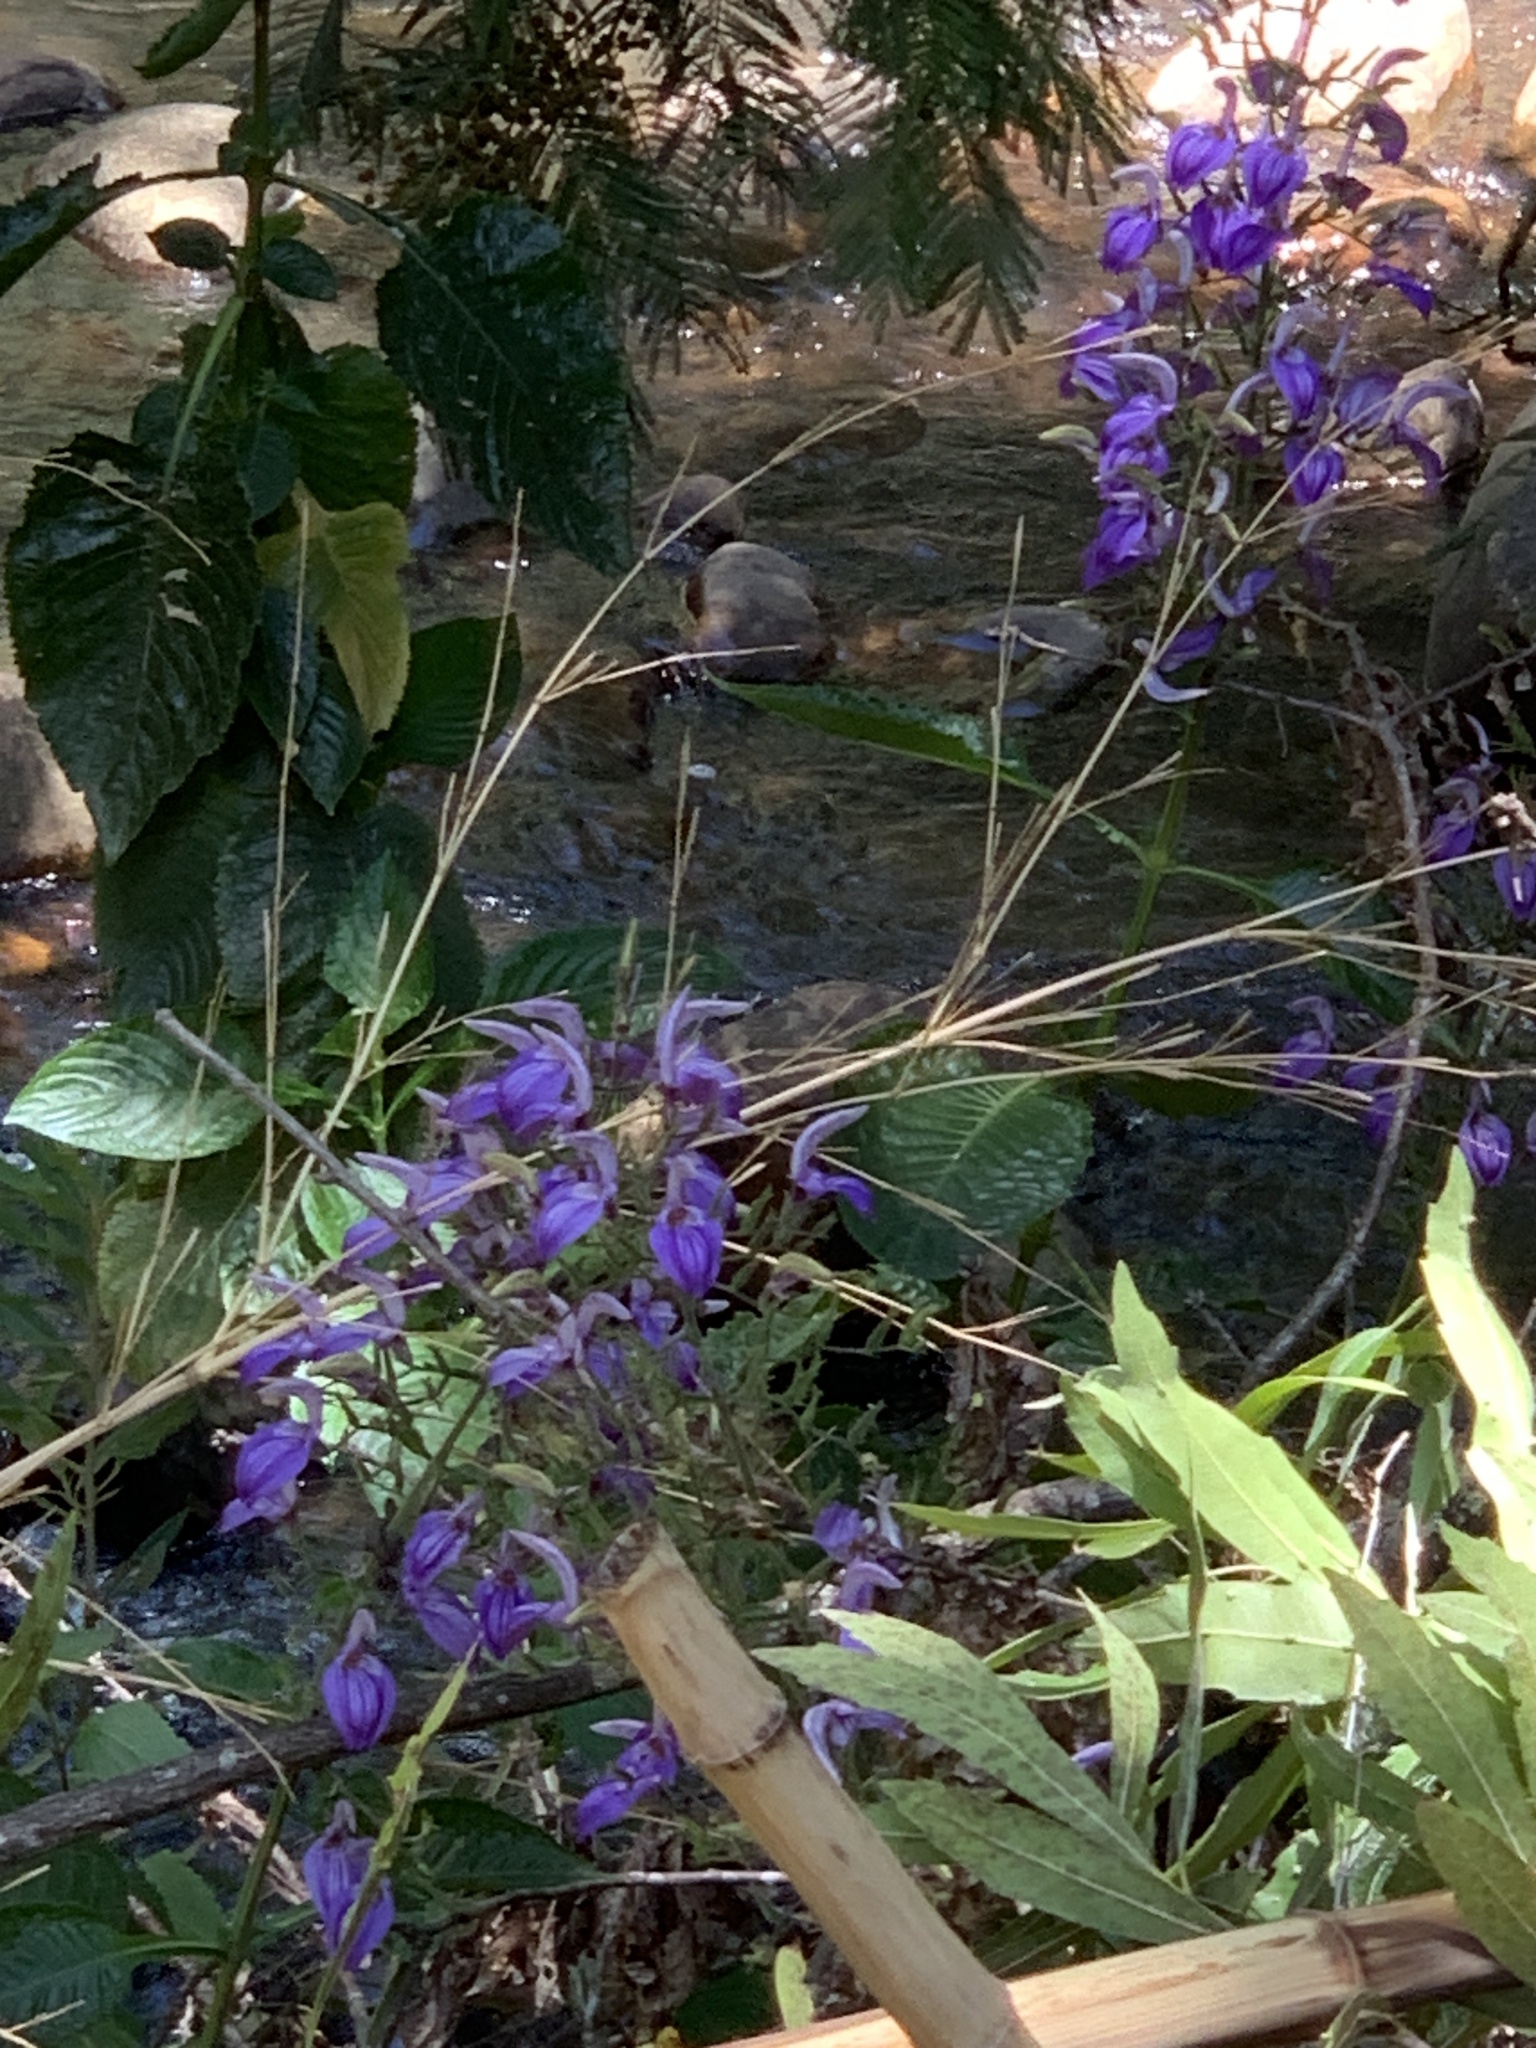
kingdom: Plantae
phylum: Tracheophyta
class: Magnoliopsida
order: Lamiales
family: Acanthaceae
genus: Brillantaisia
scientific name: Brillantaisia owariensis
